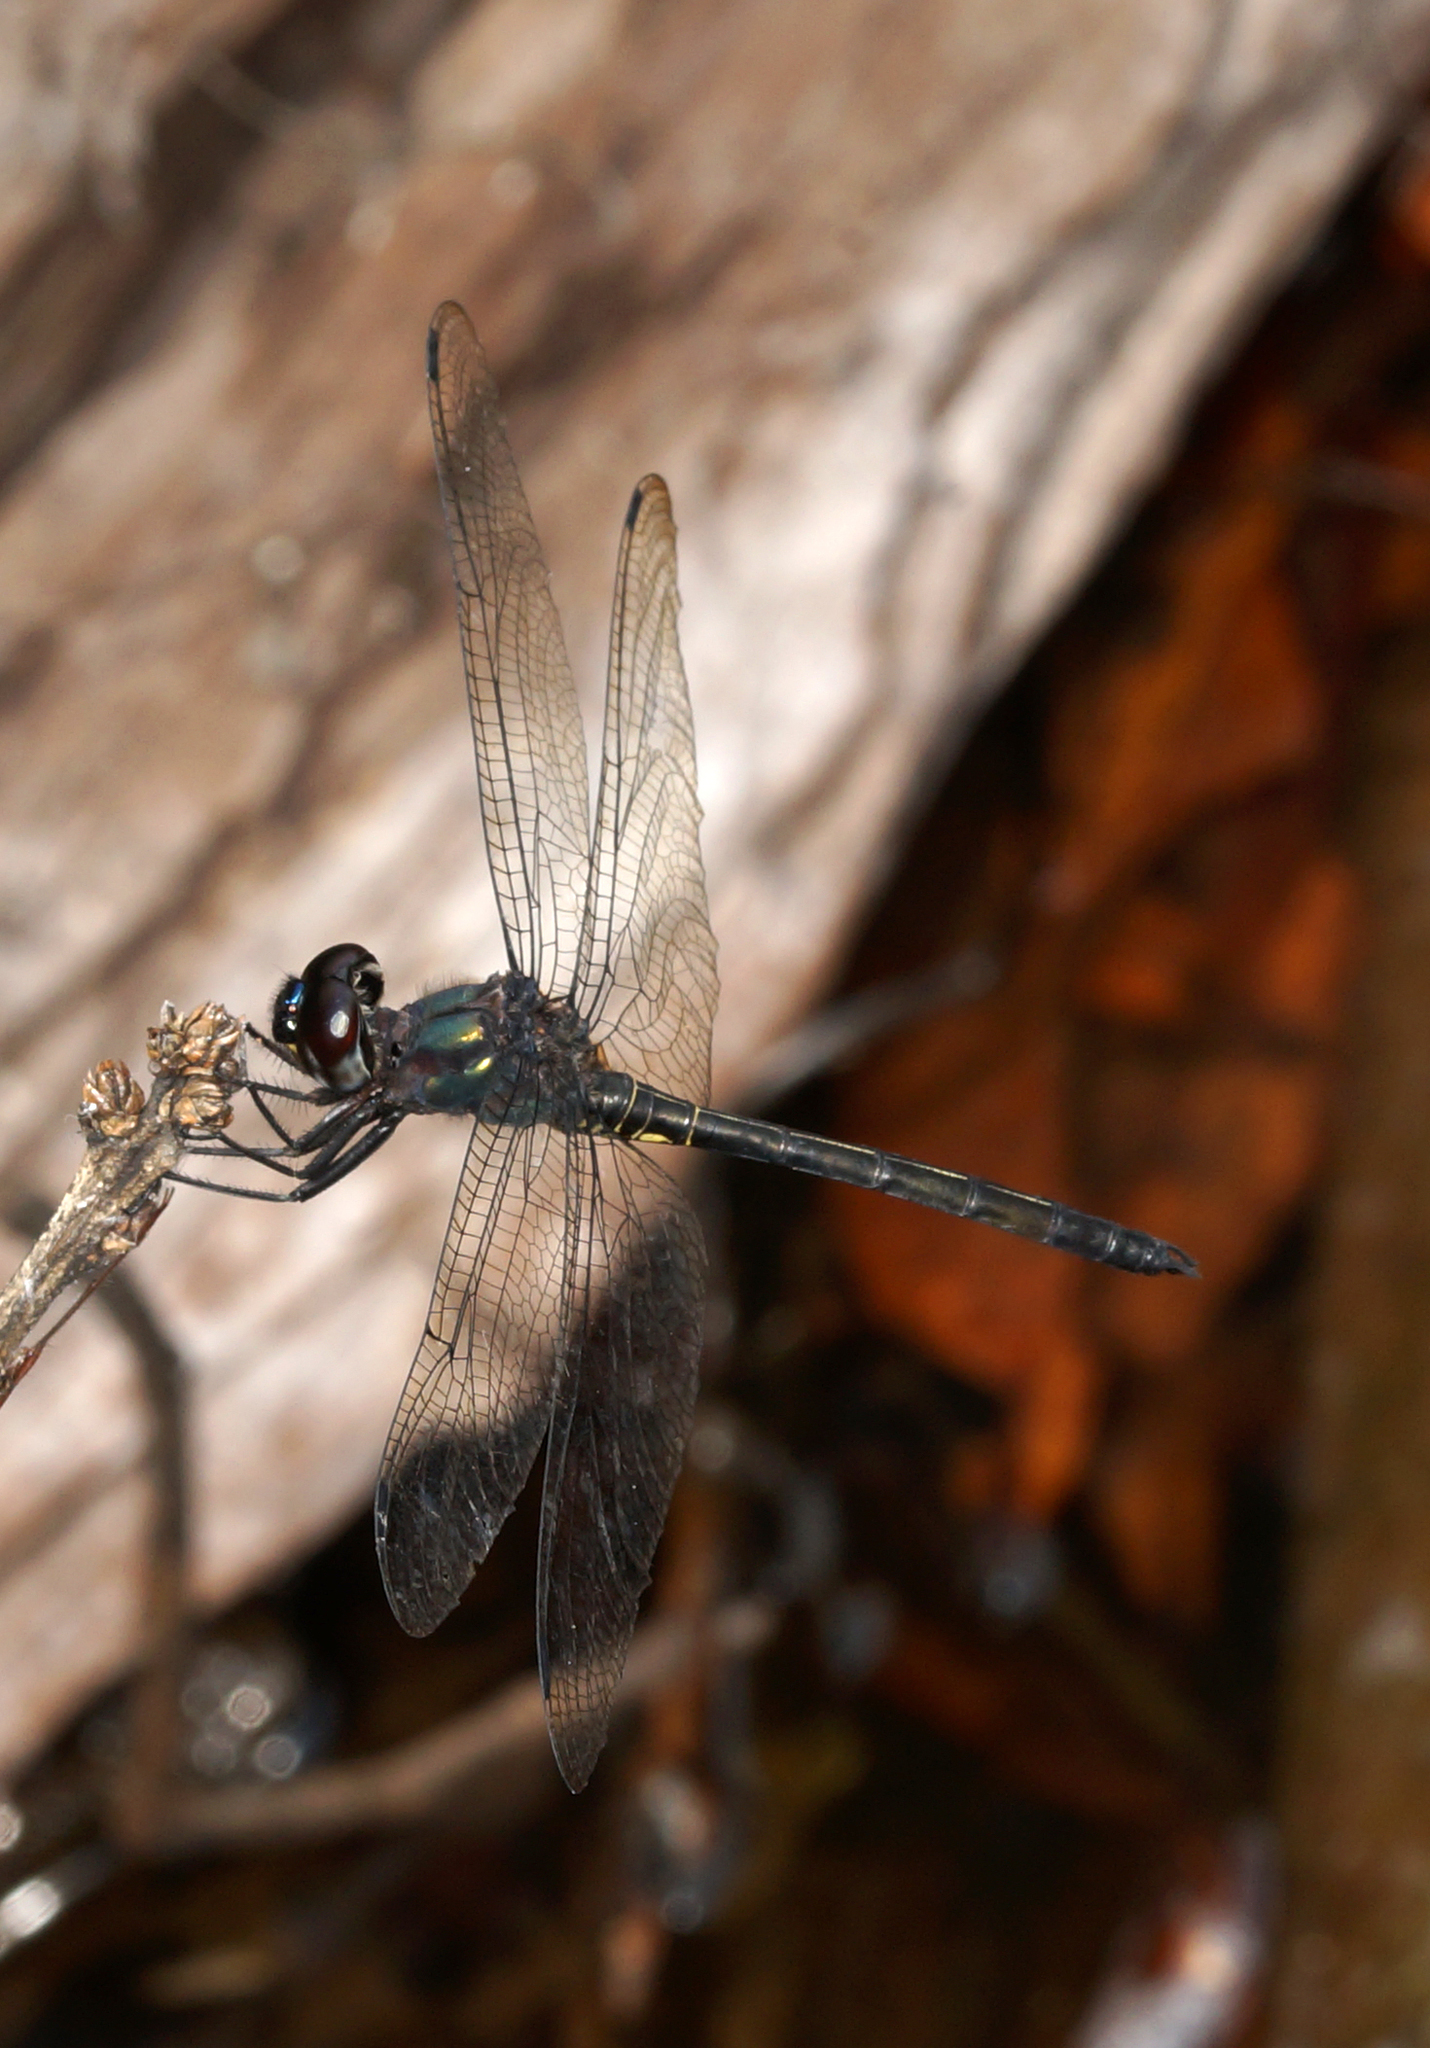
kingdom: Animalia
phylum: Arthropoda
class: Insecta
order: Odonata
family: Libellulidae
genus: Zygonyx
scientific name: Zygonyx iris
